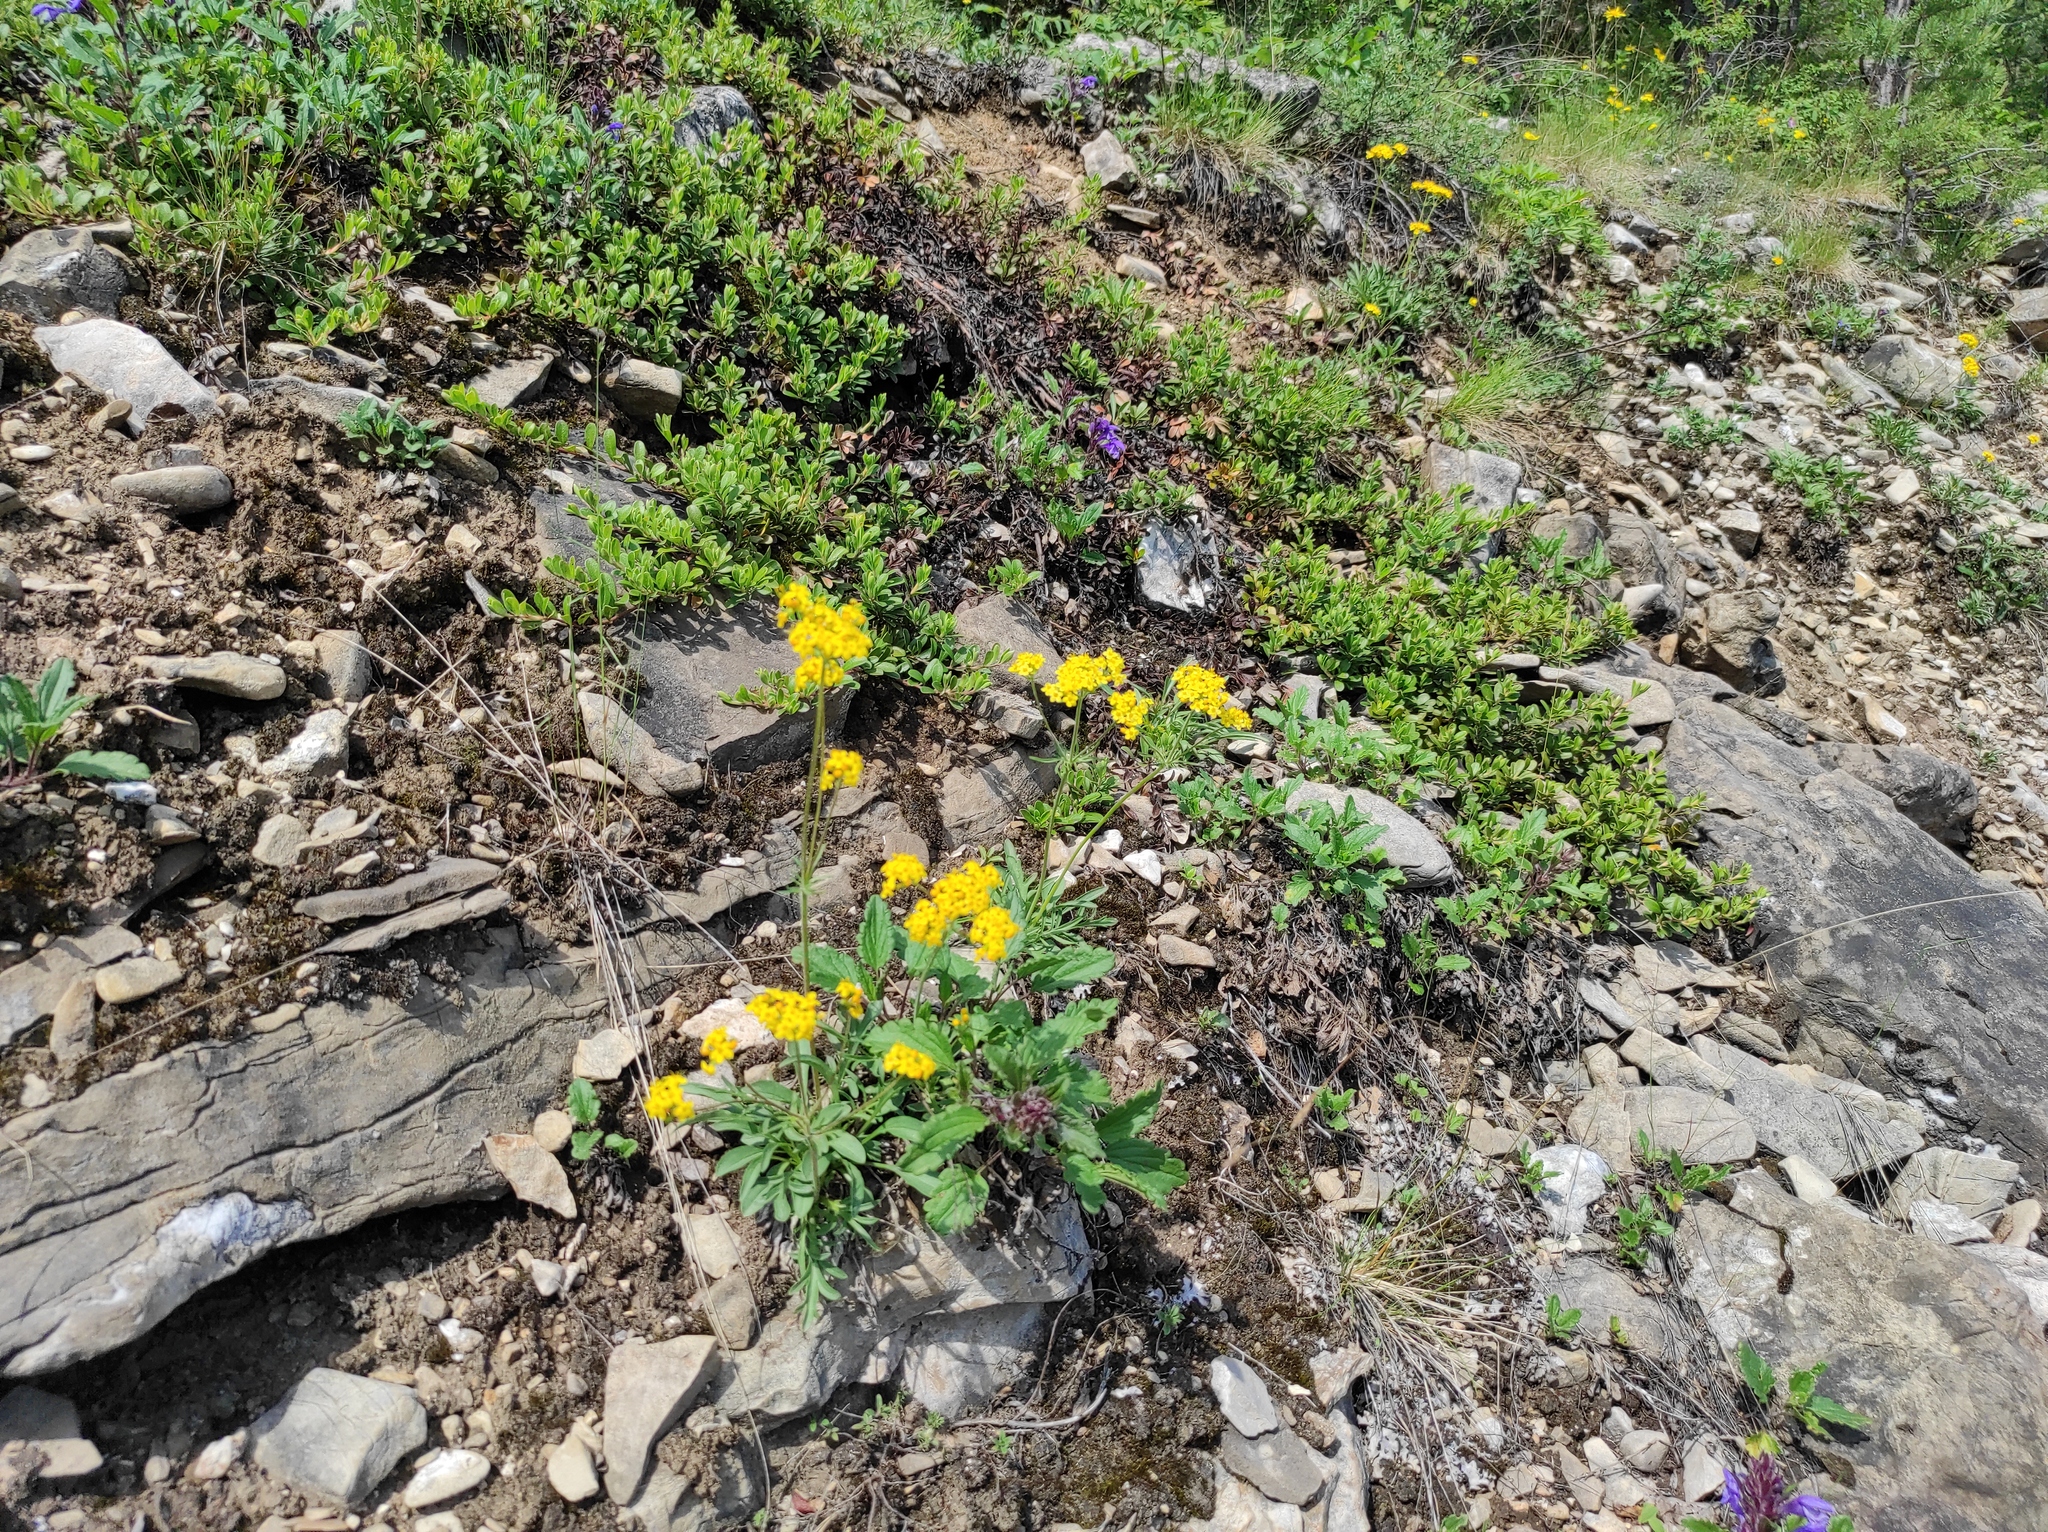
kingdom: Plantae
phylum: Tracheophyta
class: Magnoliopsida
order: Lamiales
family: Lamiaceae
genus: Dracocephalum
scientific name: Dracocephalum stellerianum
